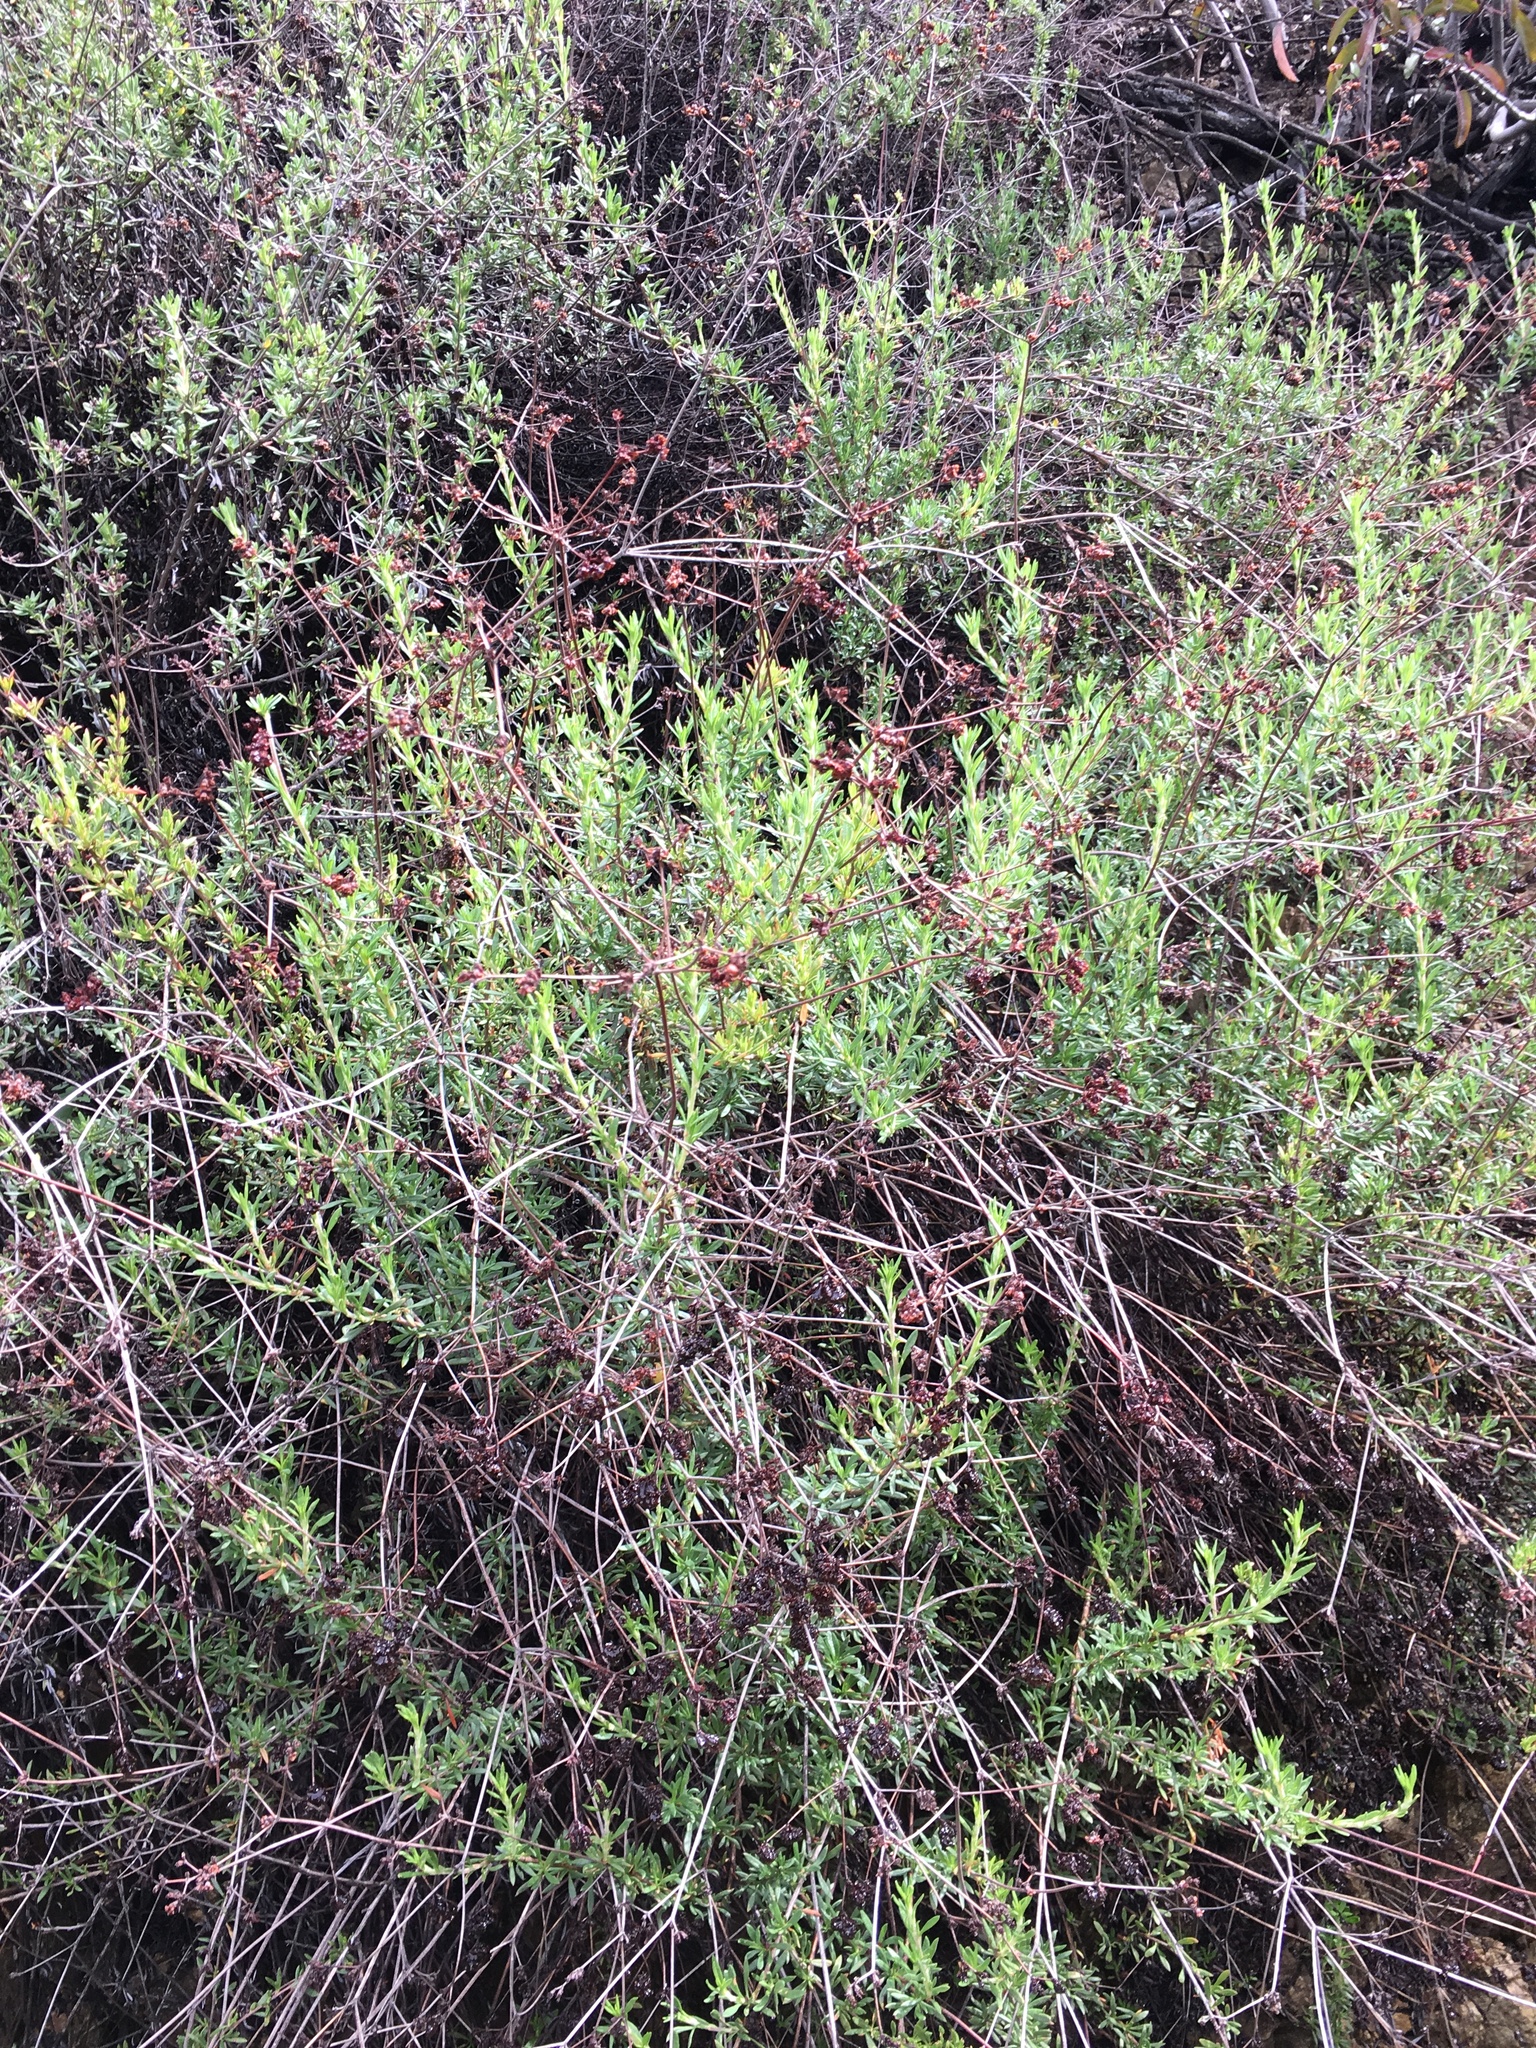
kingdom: Plantae
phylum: Tracheophyta
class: Magnoliopsida
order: Caryophyllales
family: Polygonaceae
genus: Eriogonum
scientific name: Eriogonum fasciculatum
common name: California wild buckwheat
